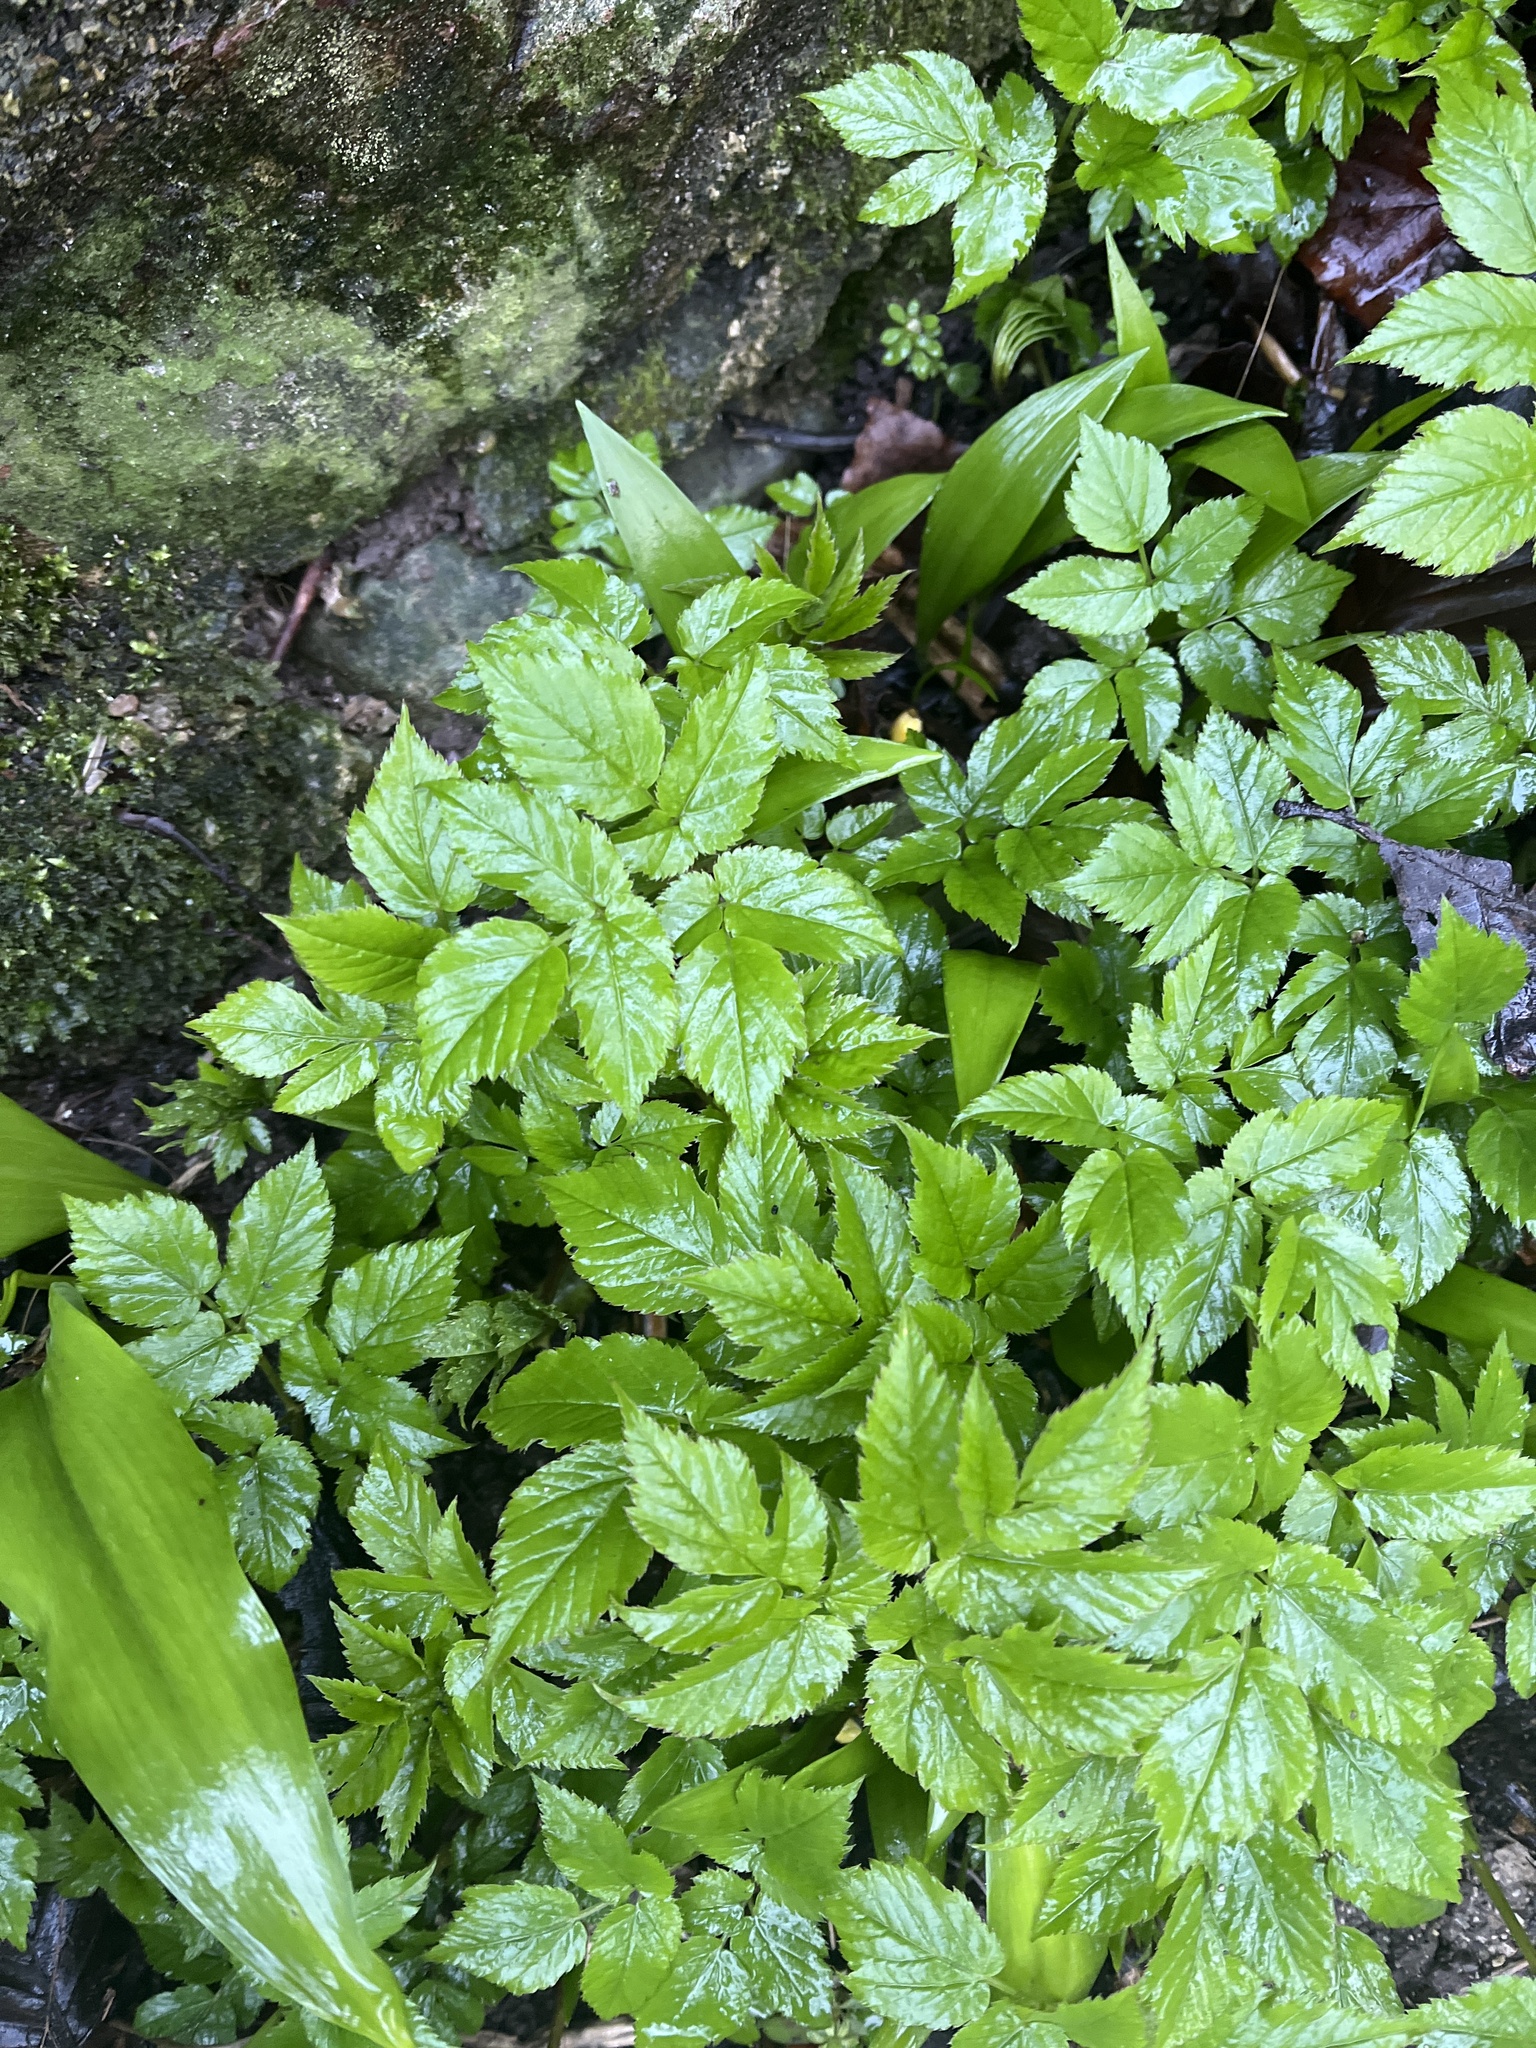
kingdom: Plantae
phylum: Tracheophyta
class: Magnoliopsida
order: Apiales
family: Apiaceae
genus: Aegopodium
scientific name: Aegopodium podagraria
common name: Ground-elder
